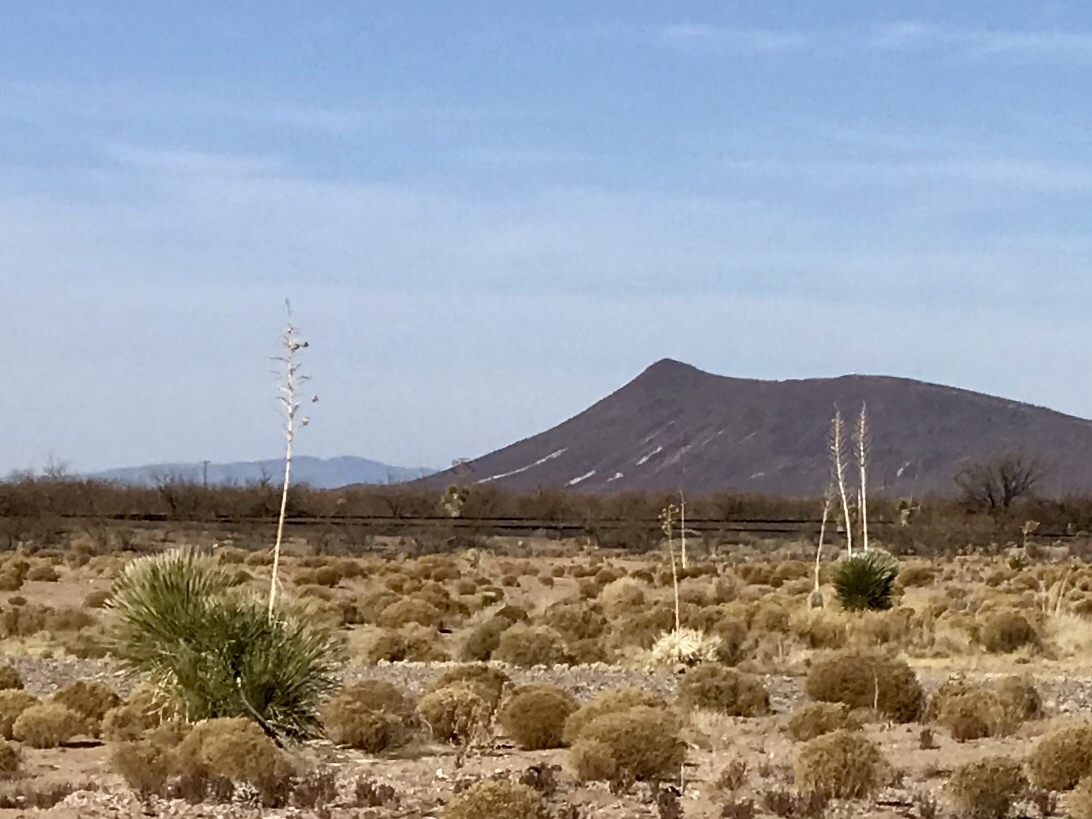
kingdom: Plantae
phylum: Tracheophyta
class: Liliopsida
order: Asparagales
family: Asparagaceae
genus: Yucca
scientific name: Yucca elata
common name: Palmella
